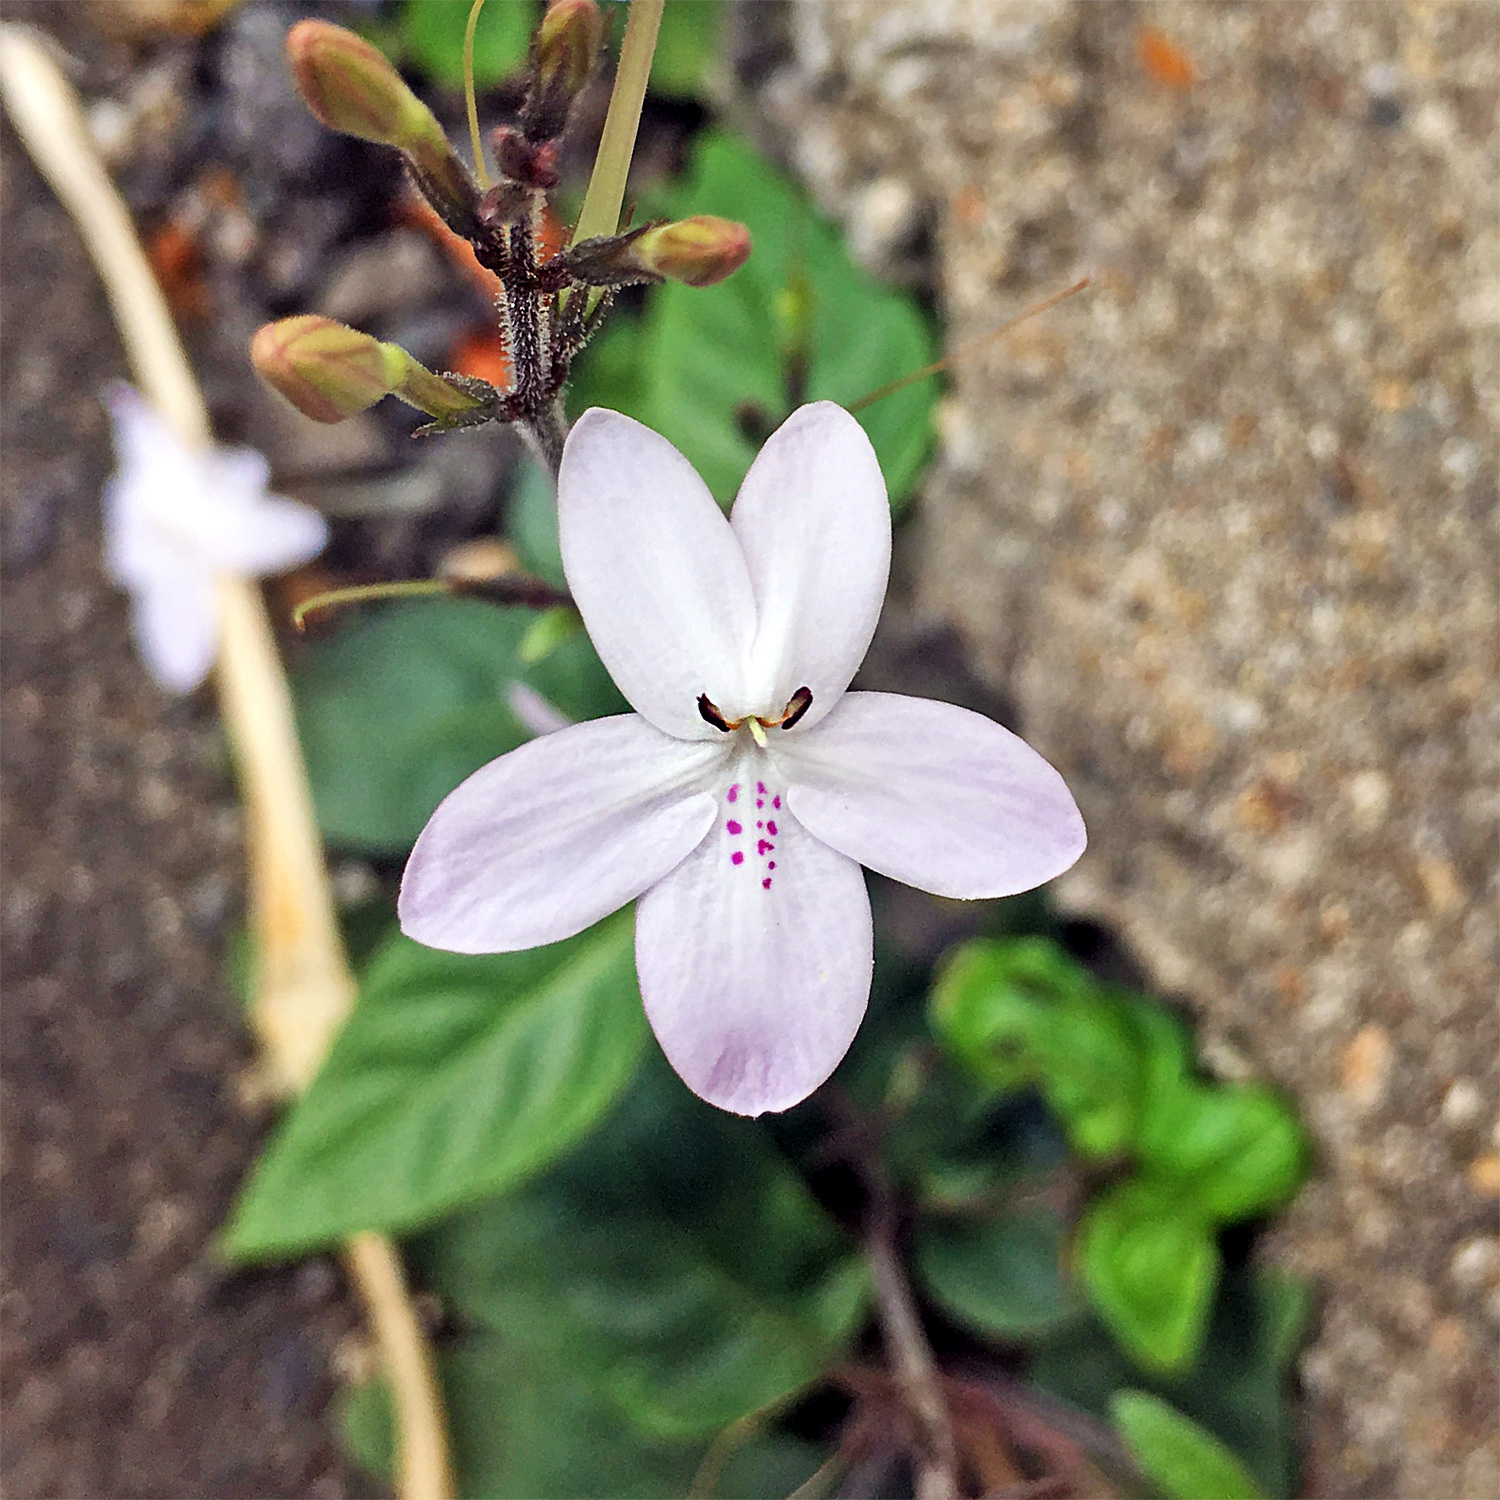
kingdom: Plantae
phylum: Tracheophyta
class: Magnoliopsida
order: Lamiales
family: Acanthaceae
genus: Pseuderanthemum
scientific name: Pseuderanthemum variabile
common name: Night and afternoon
